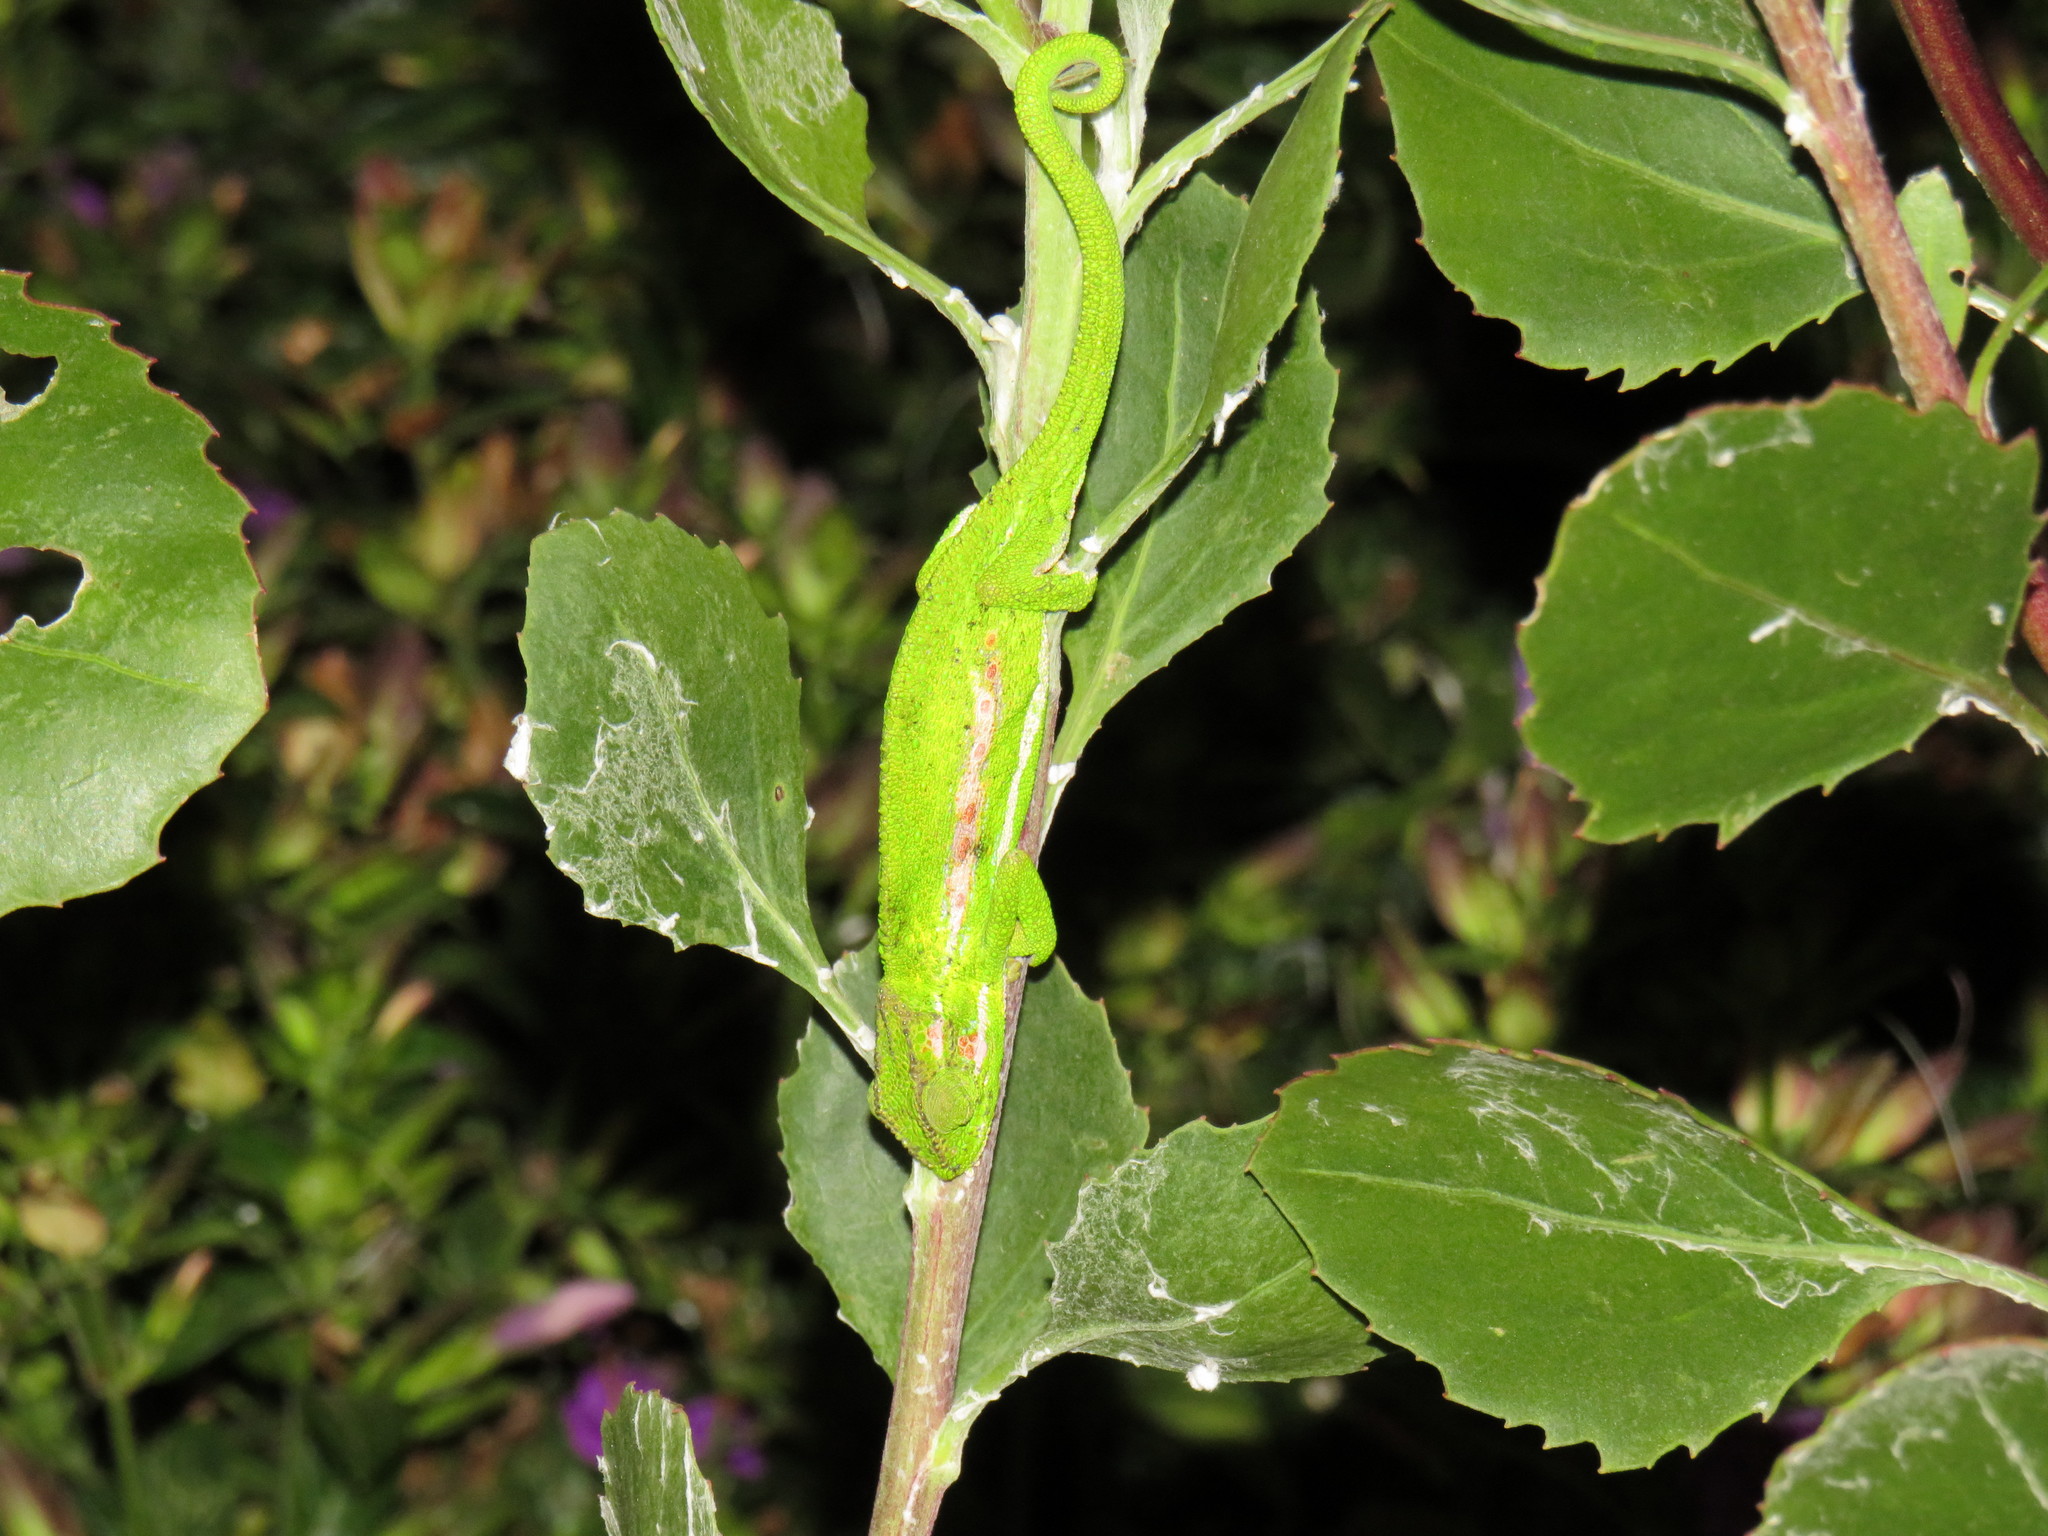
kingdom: Animalia
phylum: Chordata
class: Squamata
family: Chamaeleonidae
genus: Bradypodion
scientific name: Bradypodion pumilum
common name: Cape dwarf chameleon
